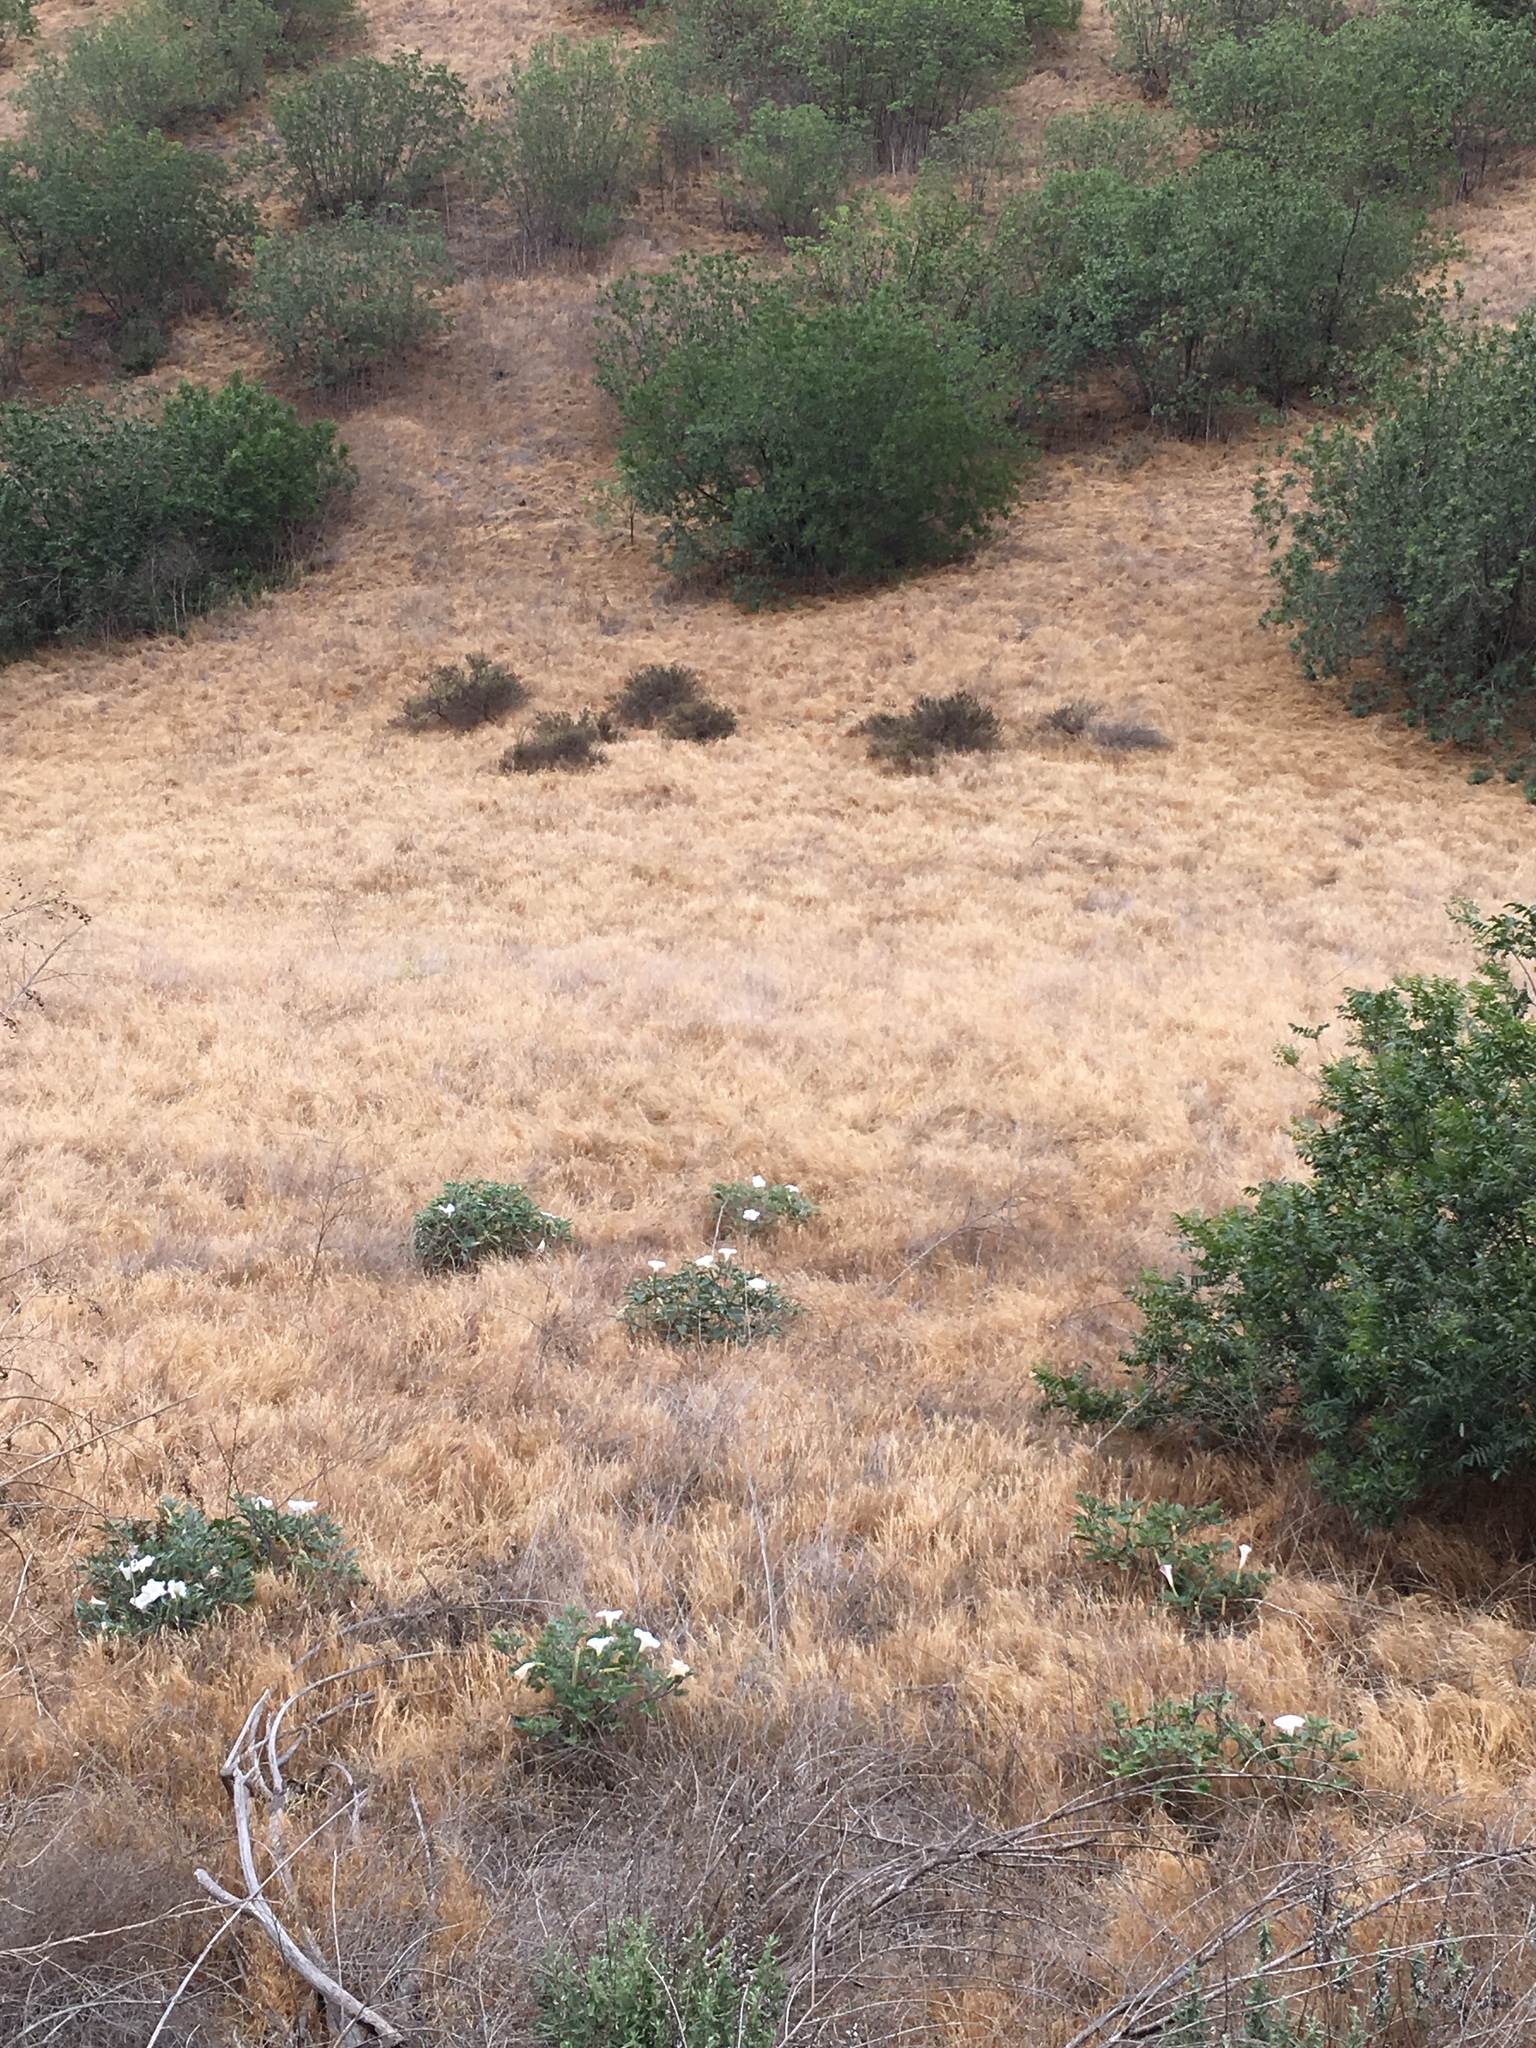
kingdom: Plantae
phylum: Tracheophyta
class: Magnoliopsida
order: Solanales
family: Solanaceae
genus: Datura
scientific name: Datura wrightii
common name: Sacred thorn-apple
